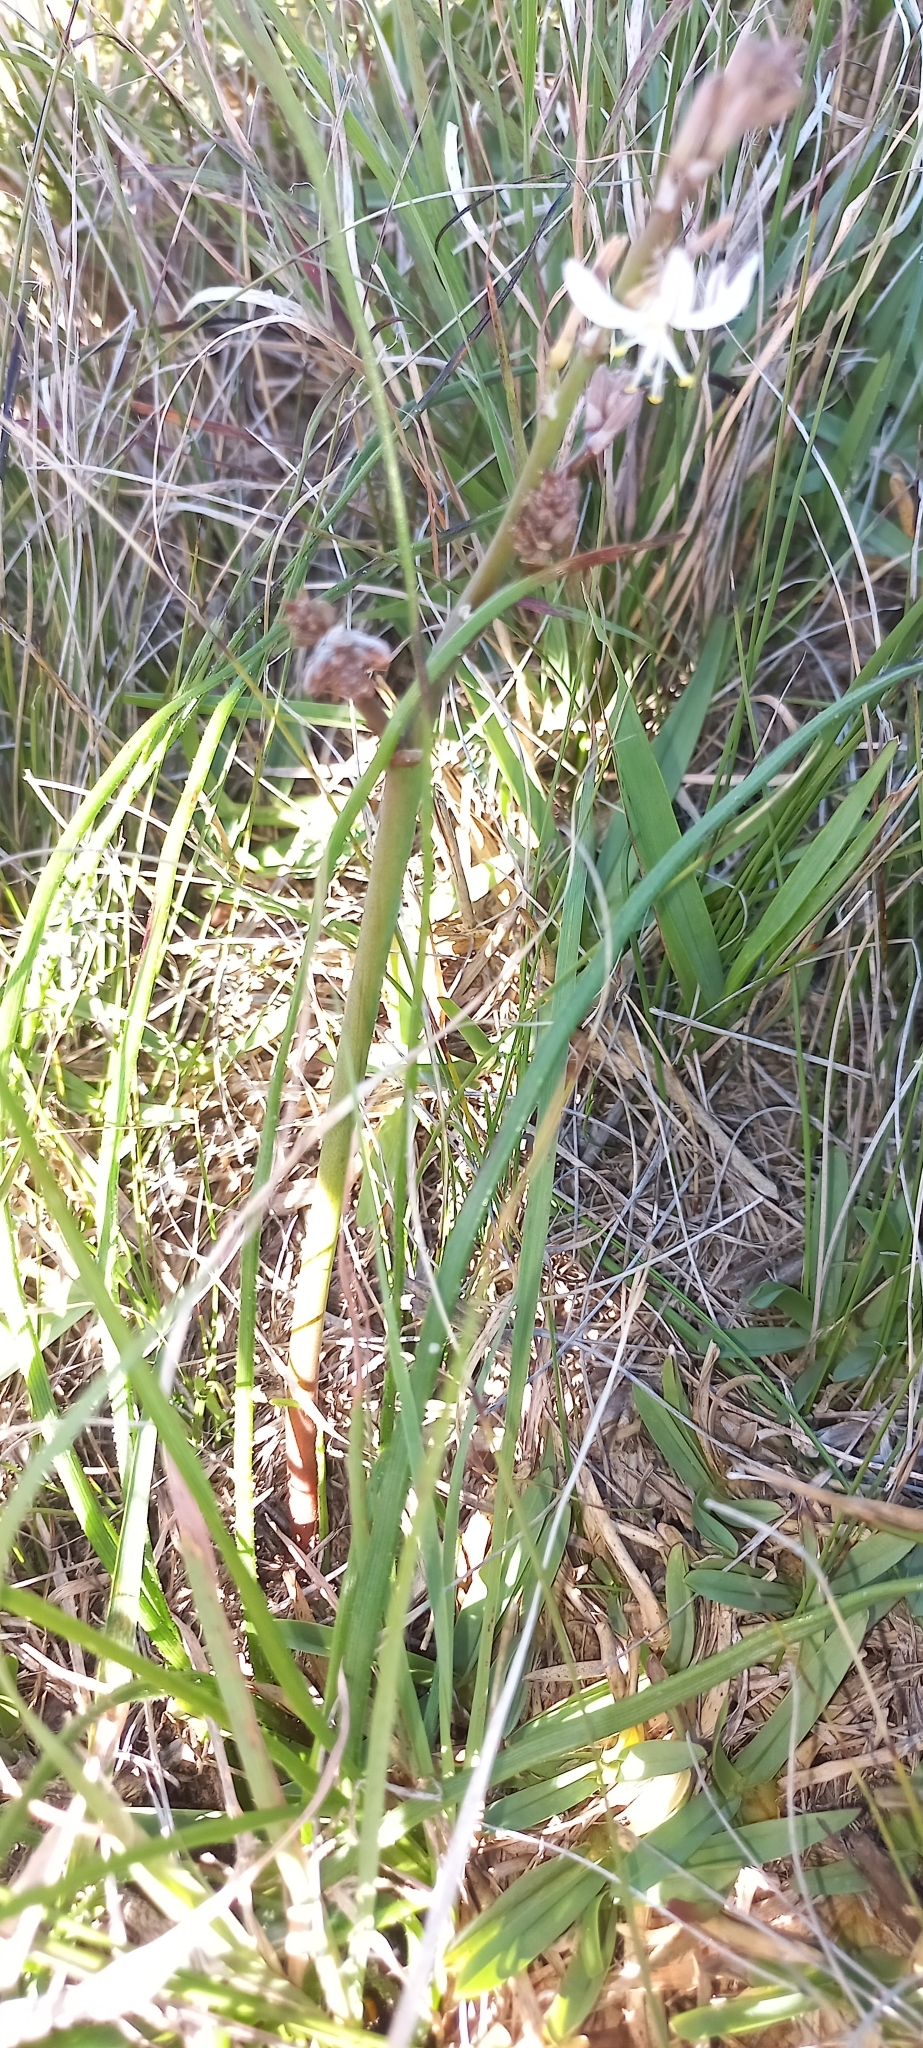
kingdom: Plantae
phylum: Tracheophyta
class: Liliopsida
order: Asparagales
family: Asparagaceae
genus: Chlorophytum
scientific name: Chlorophytum comosum
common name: Spider plant
